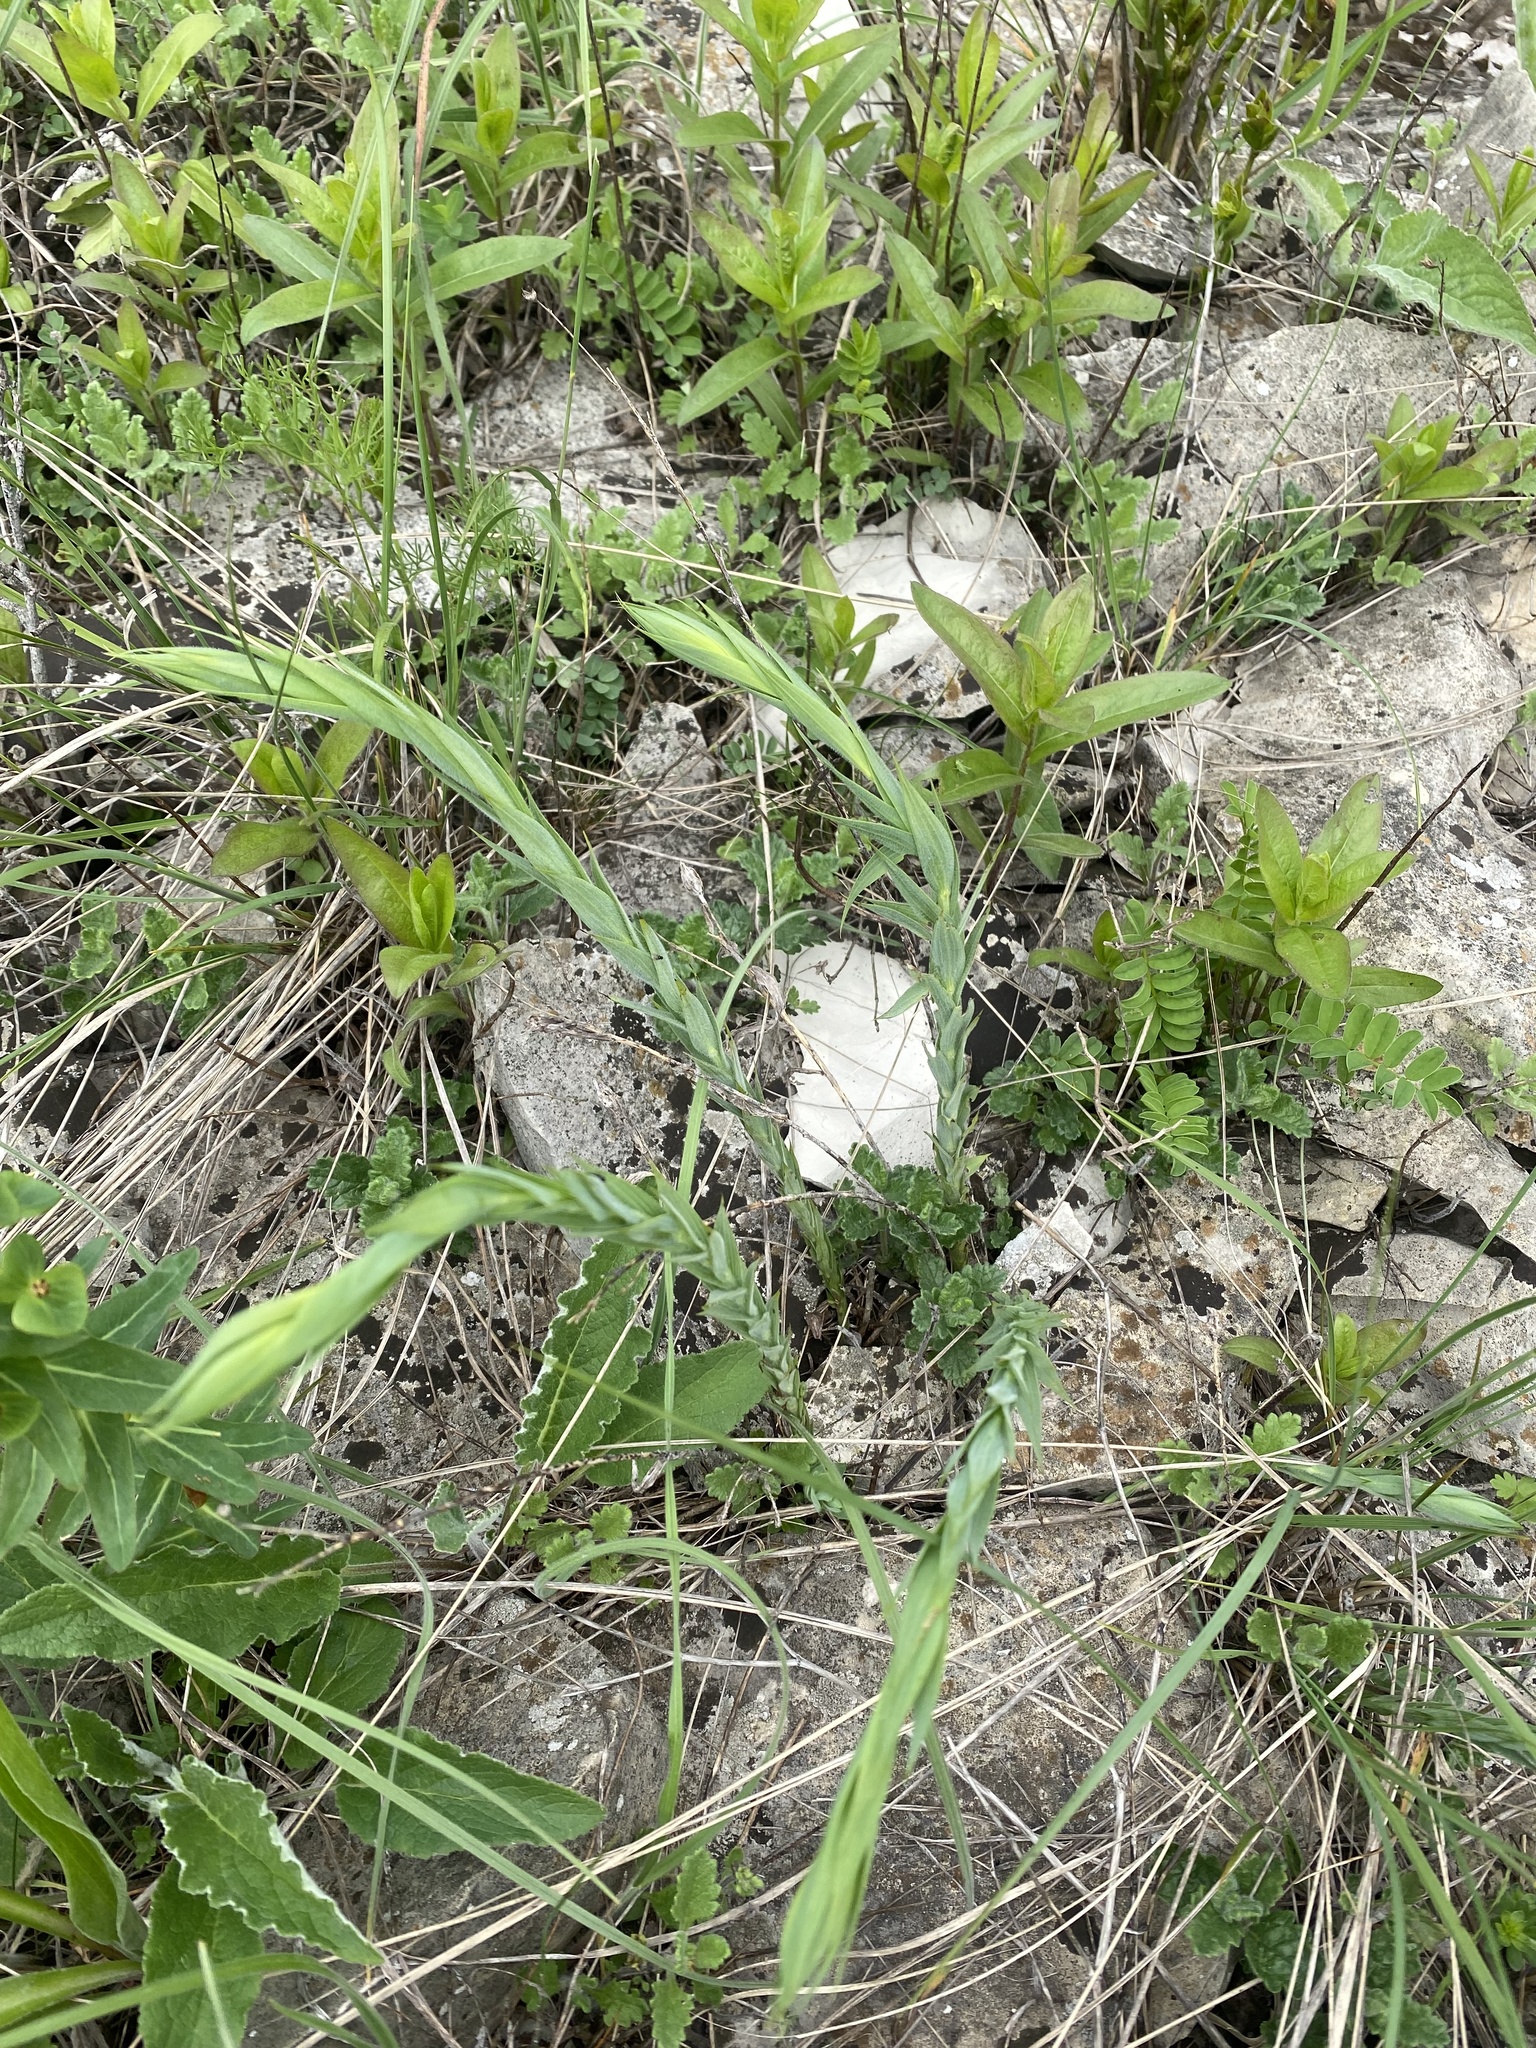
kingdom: Plantae
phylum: Tracheophyta
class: Magnoliopsida
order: Malpighiales
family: Linaceae
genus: Linum
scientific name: Linum nervosum
